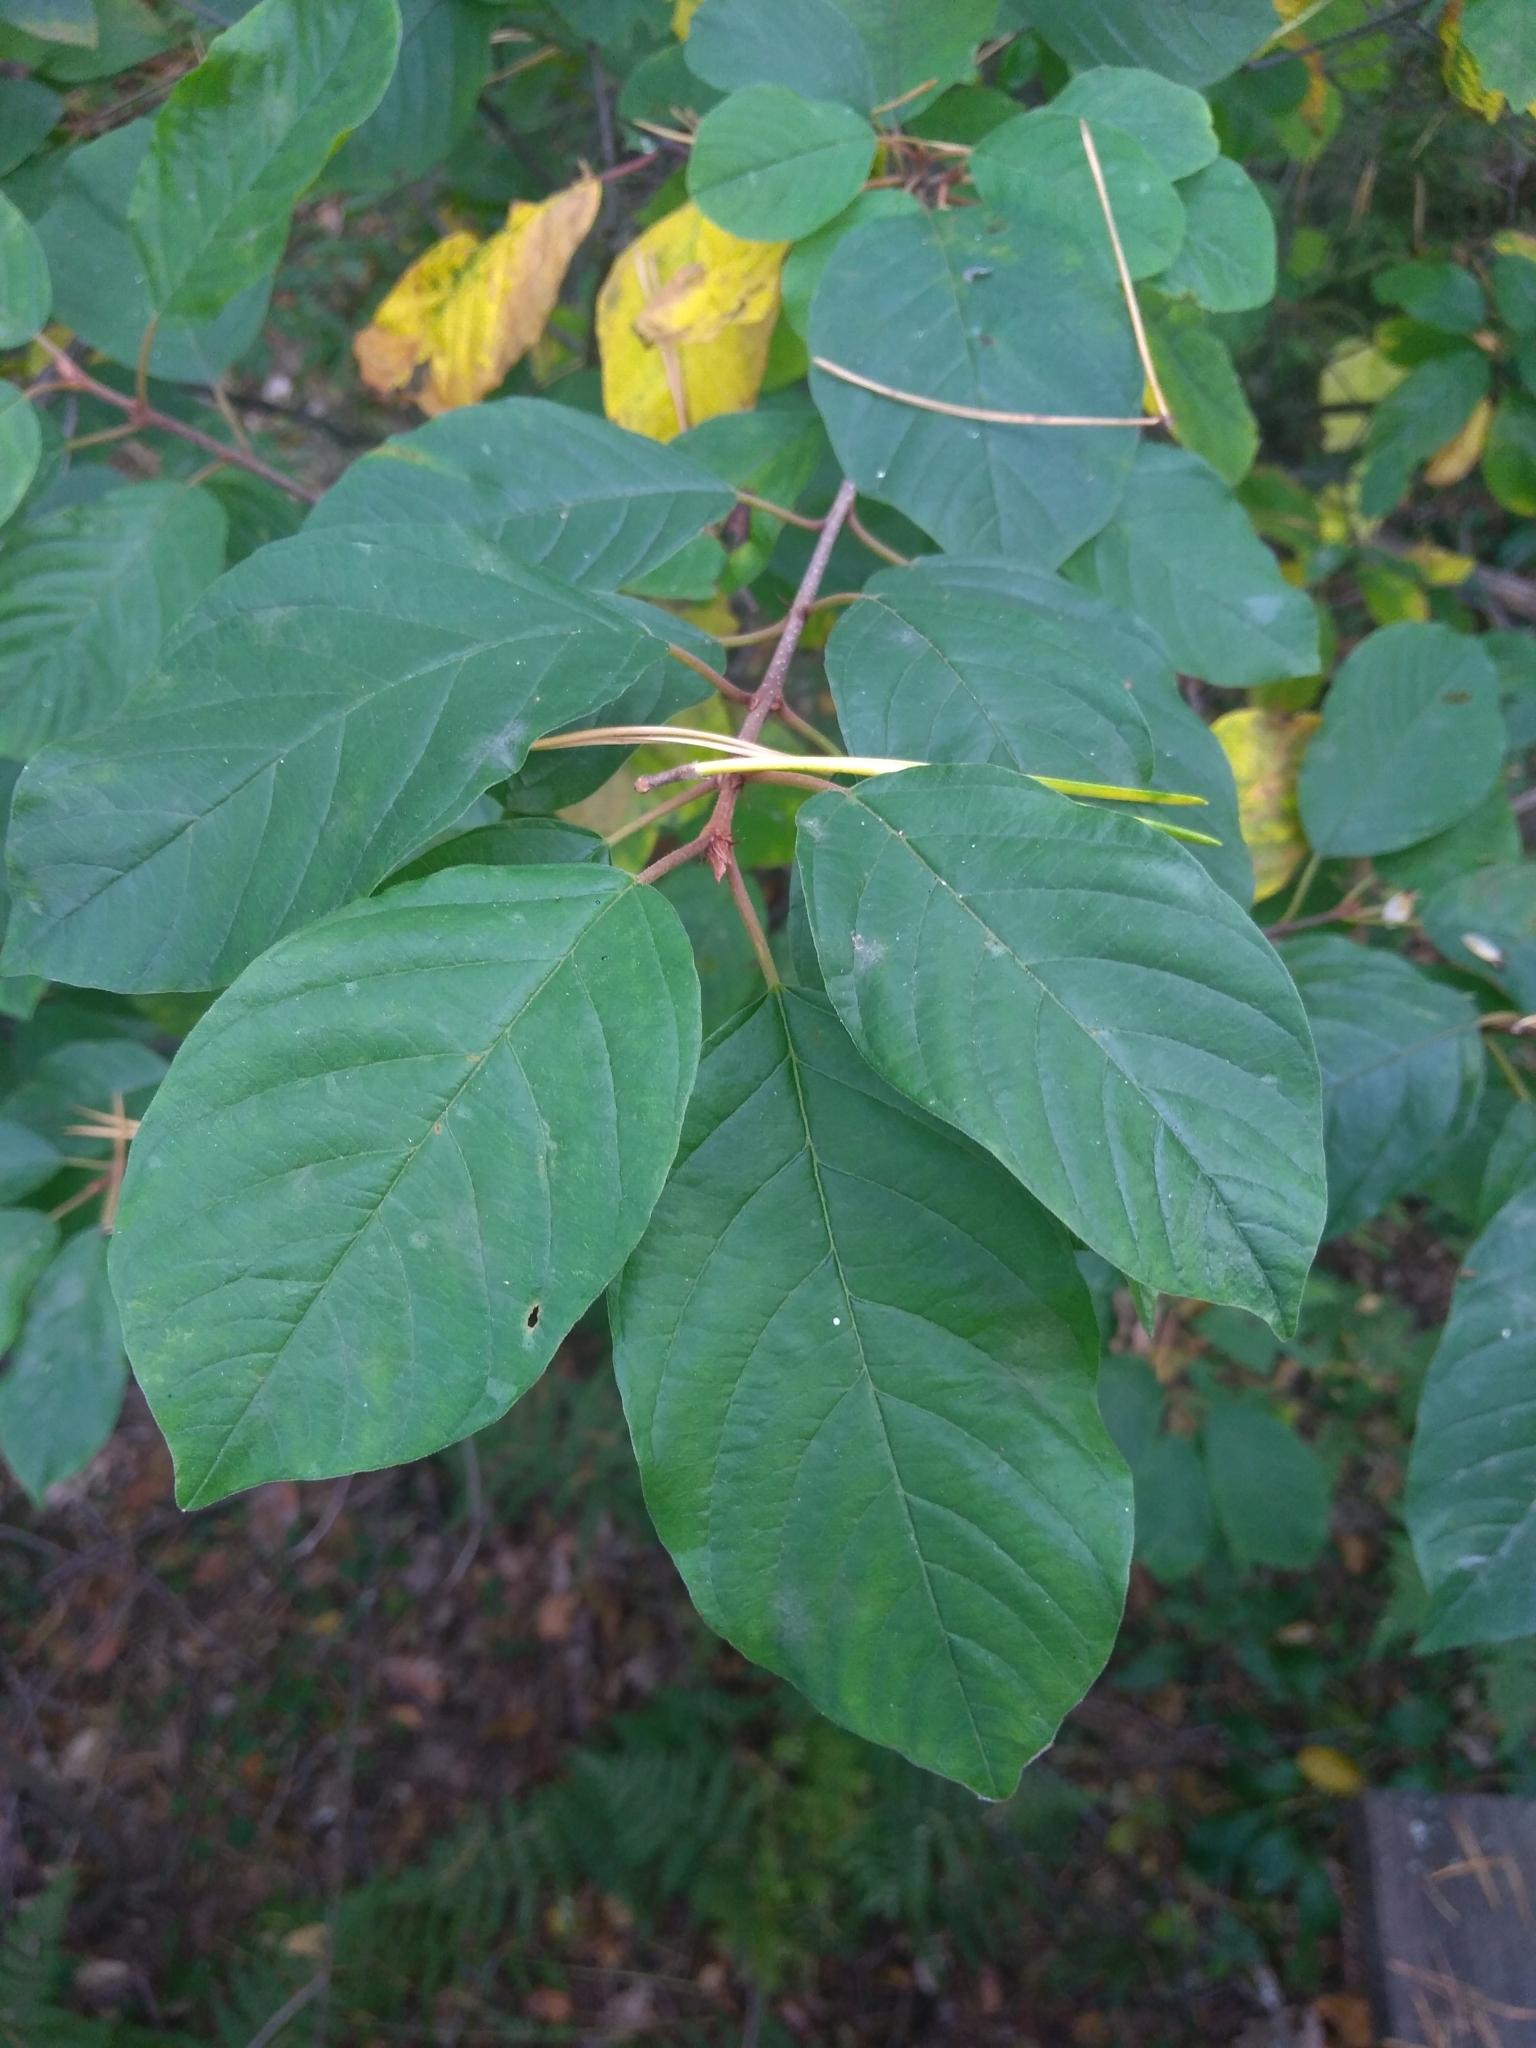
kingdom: Plantae
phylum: Tracheophyta
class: Magnoliopsida
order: Rosales
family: Rhamnaceae
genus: Frangula
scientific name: Frangula alnus
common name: Alder buckthorn
